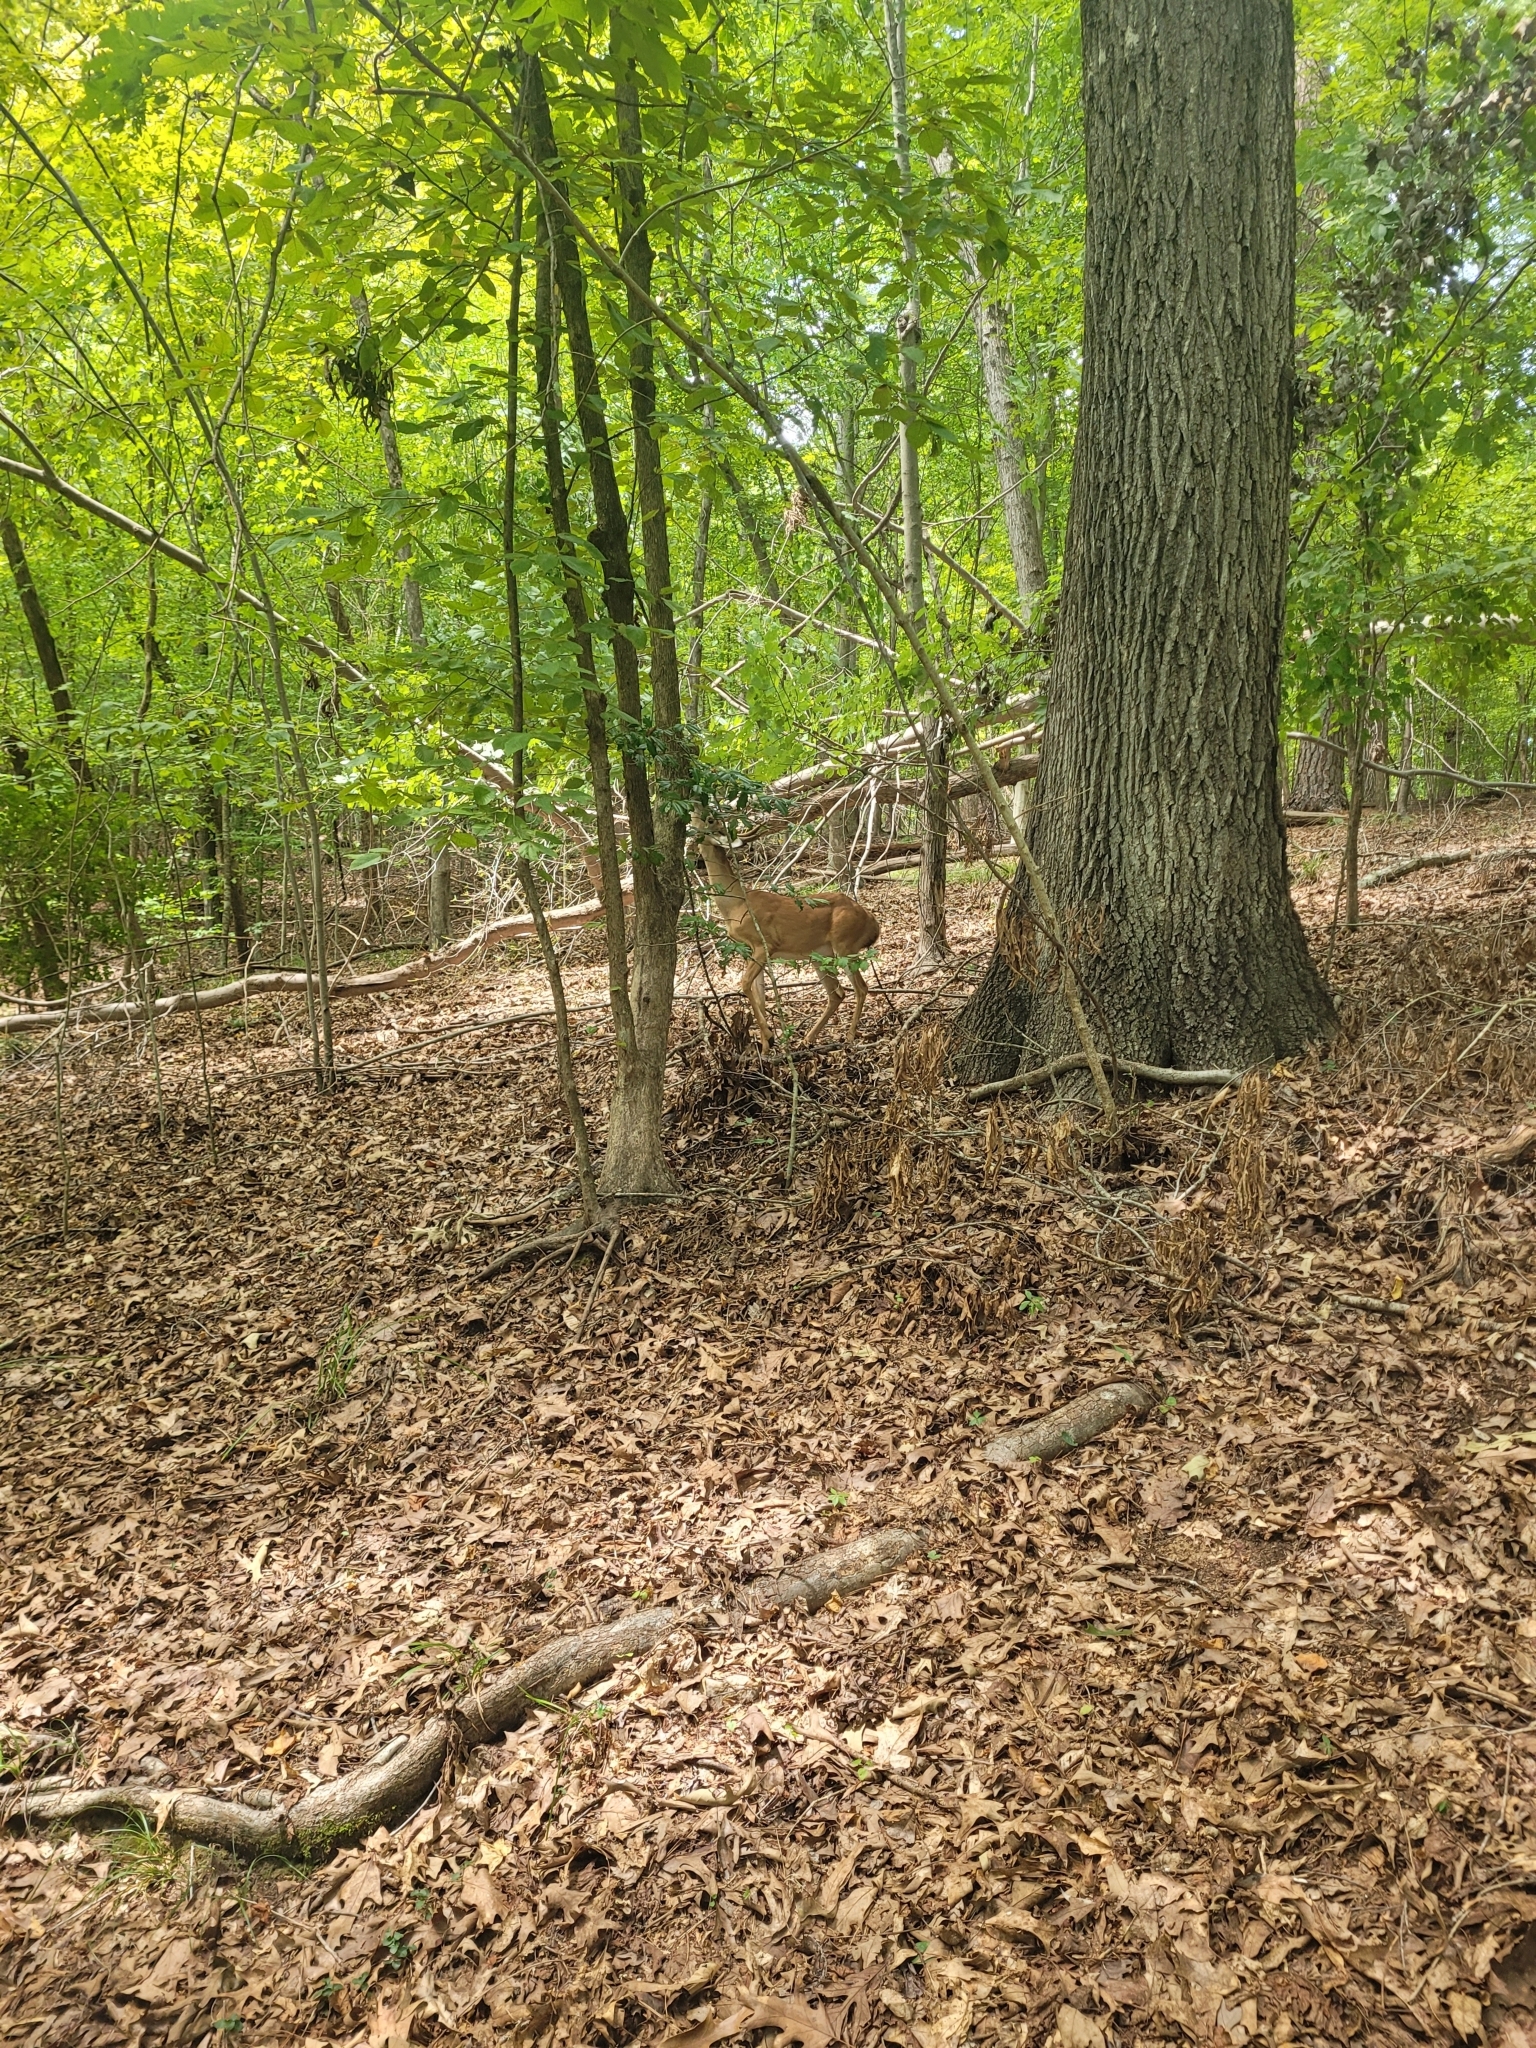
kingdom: Animalia
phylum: Chordata
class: Mammalia
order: Artiodactyla
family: Cervidae
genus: Odocoileus
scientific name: Odocoileus virginianus
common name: White-tailed deer
